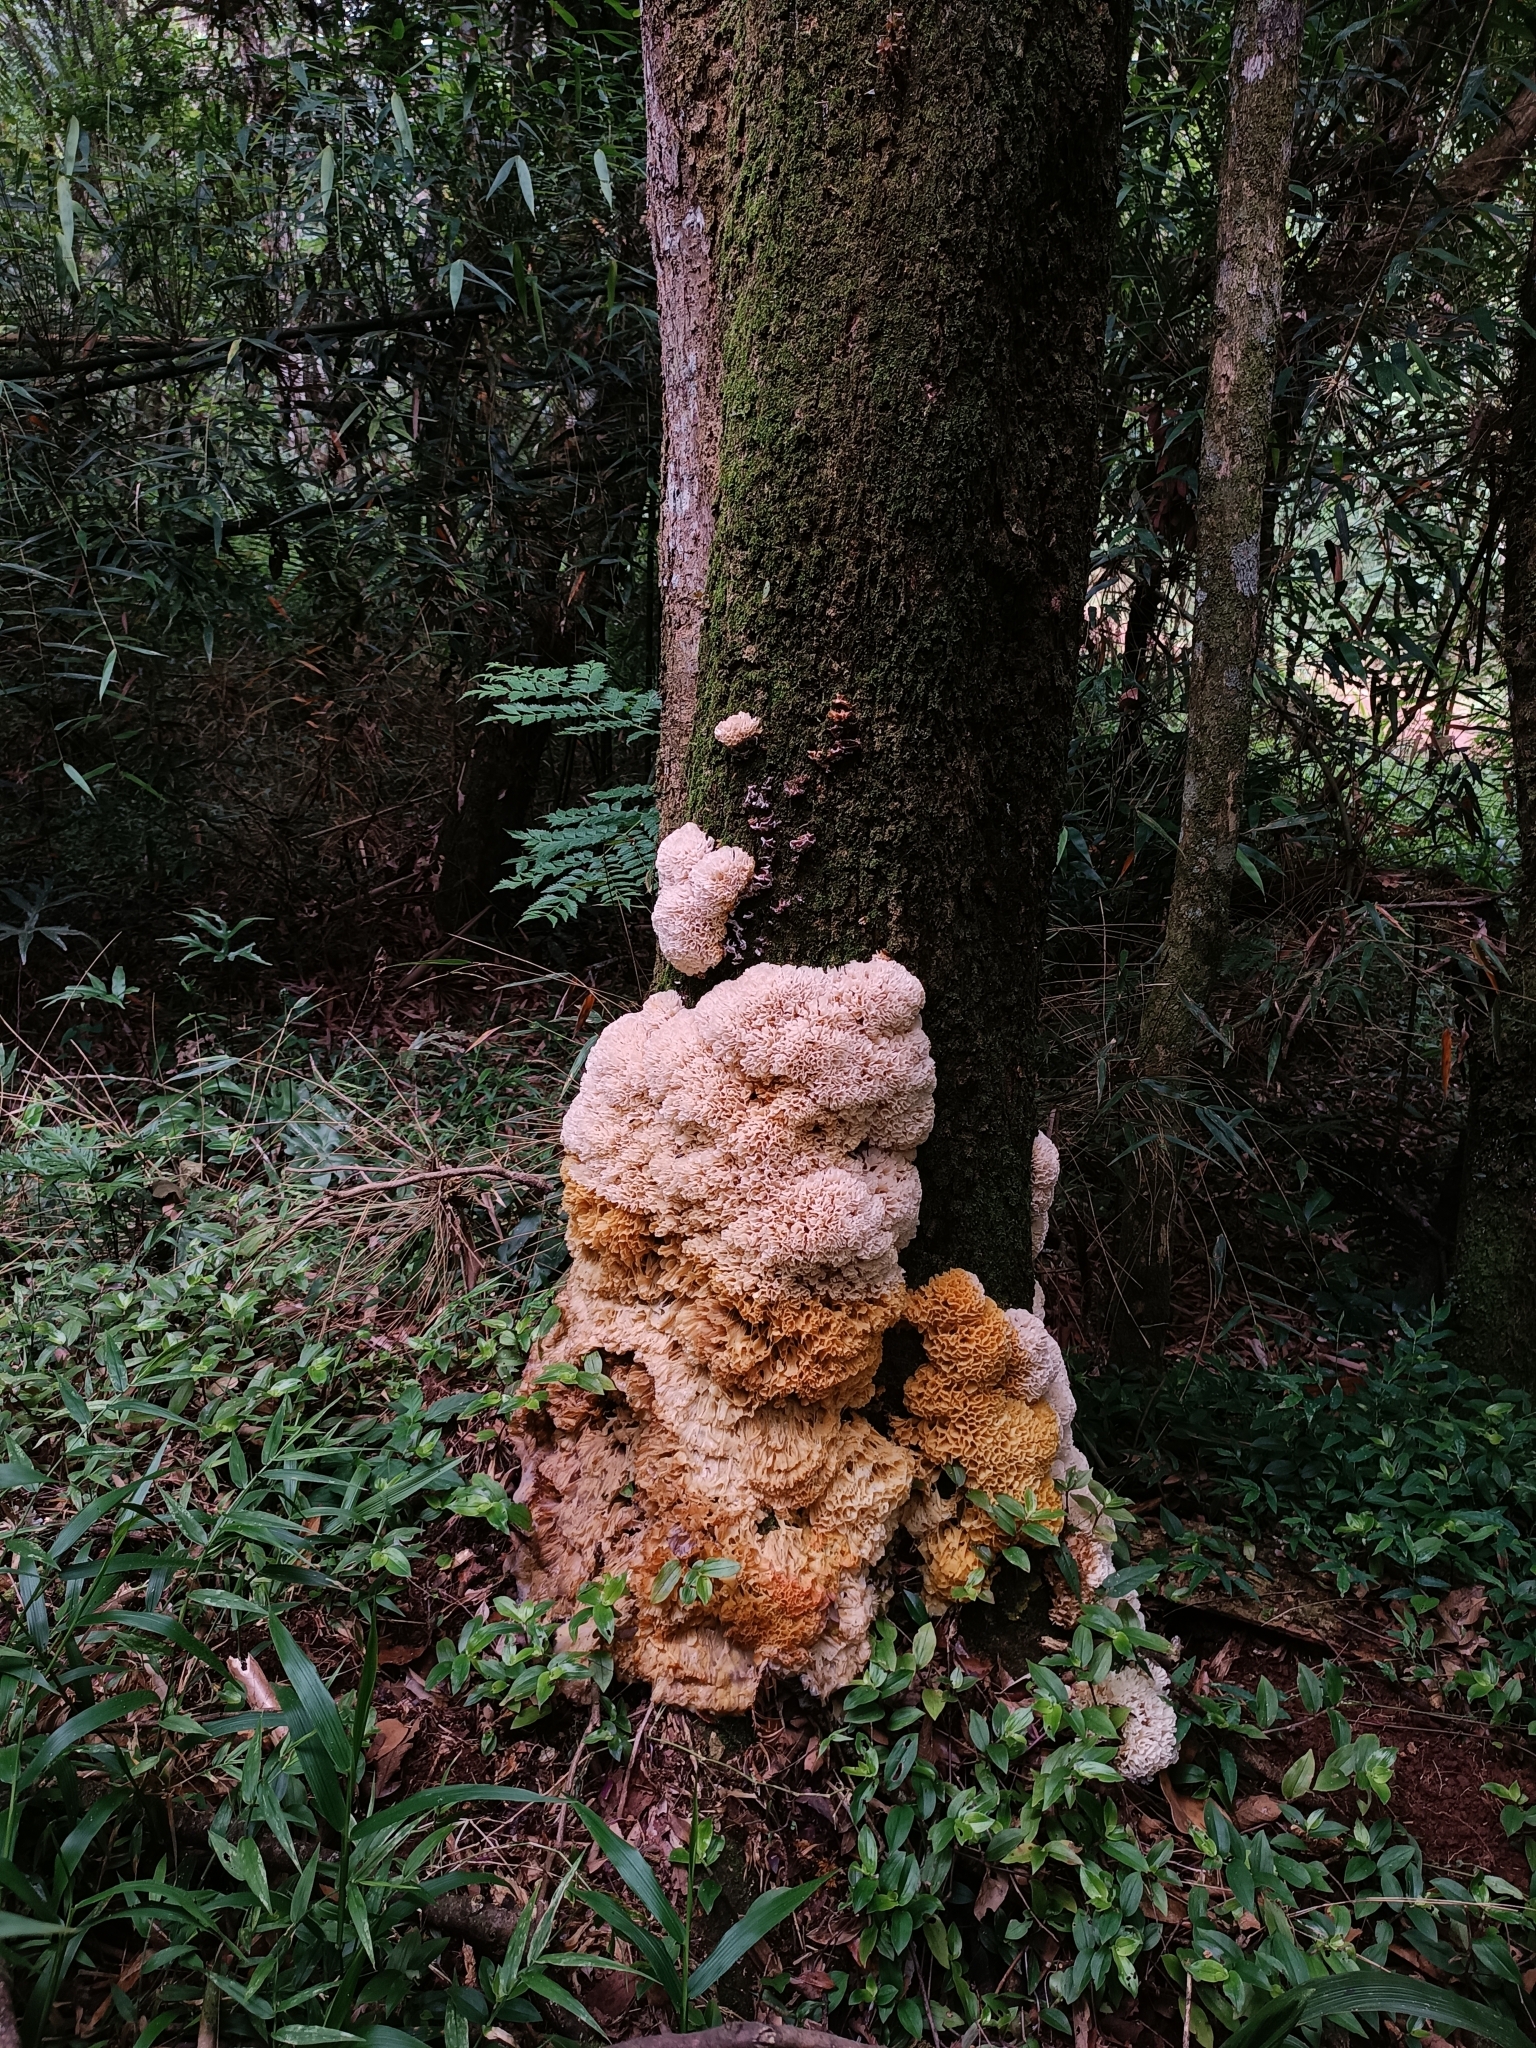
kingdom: Fungi
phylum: Basidiomycota
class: Agaricomycetes
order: Polyporales
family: Irpicaceae
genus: Irpex
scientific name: Irpex rosettiformis
